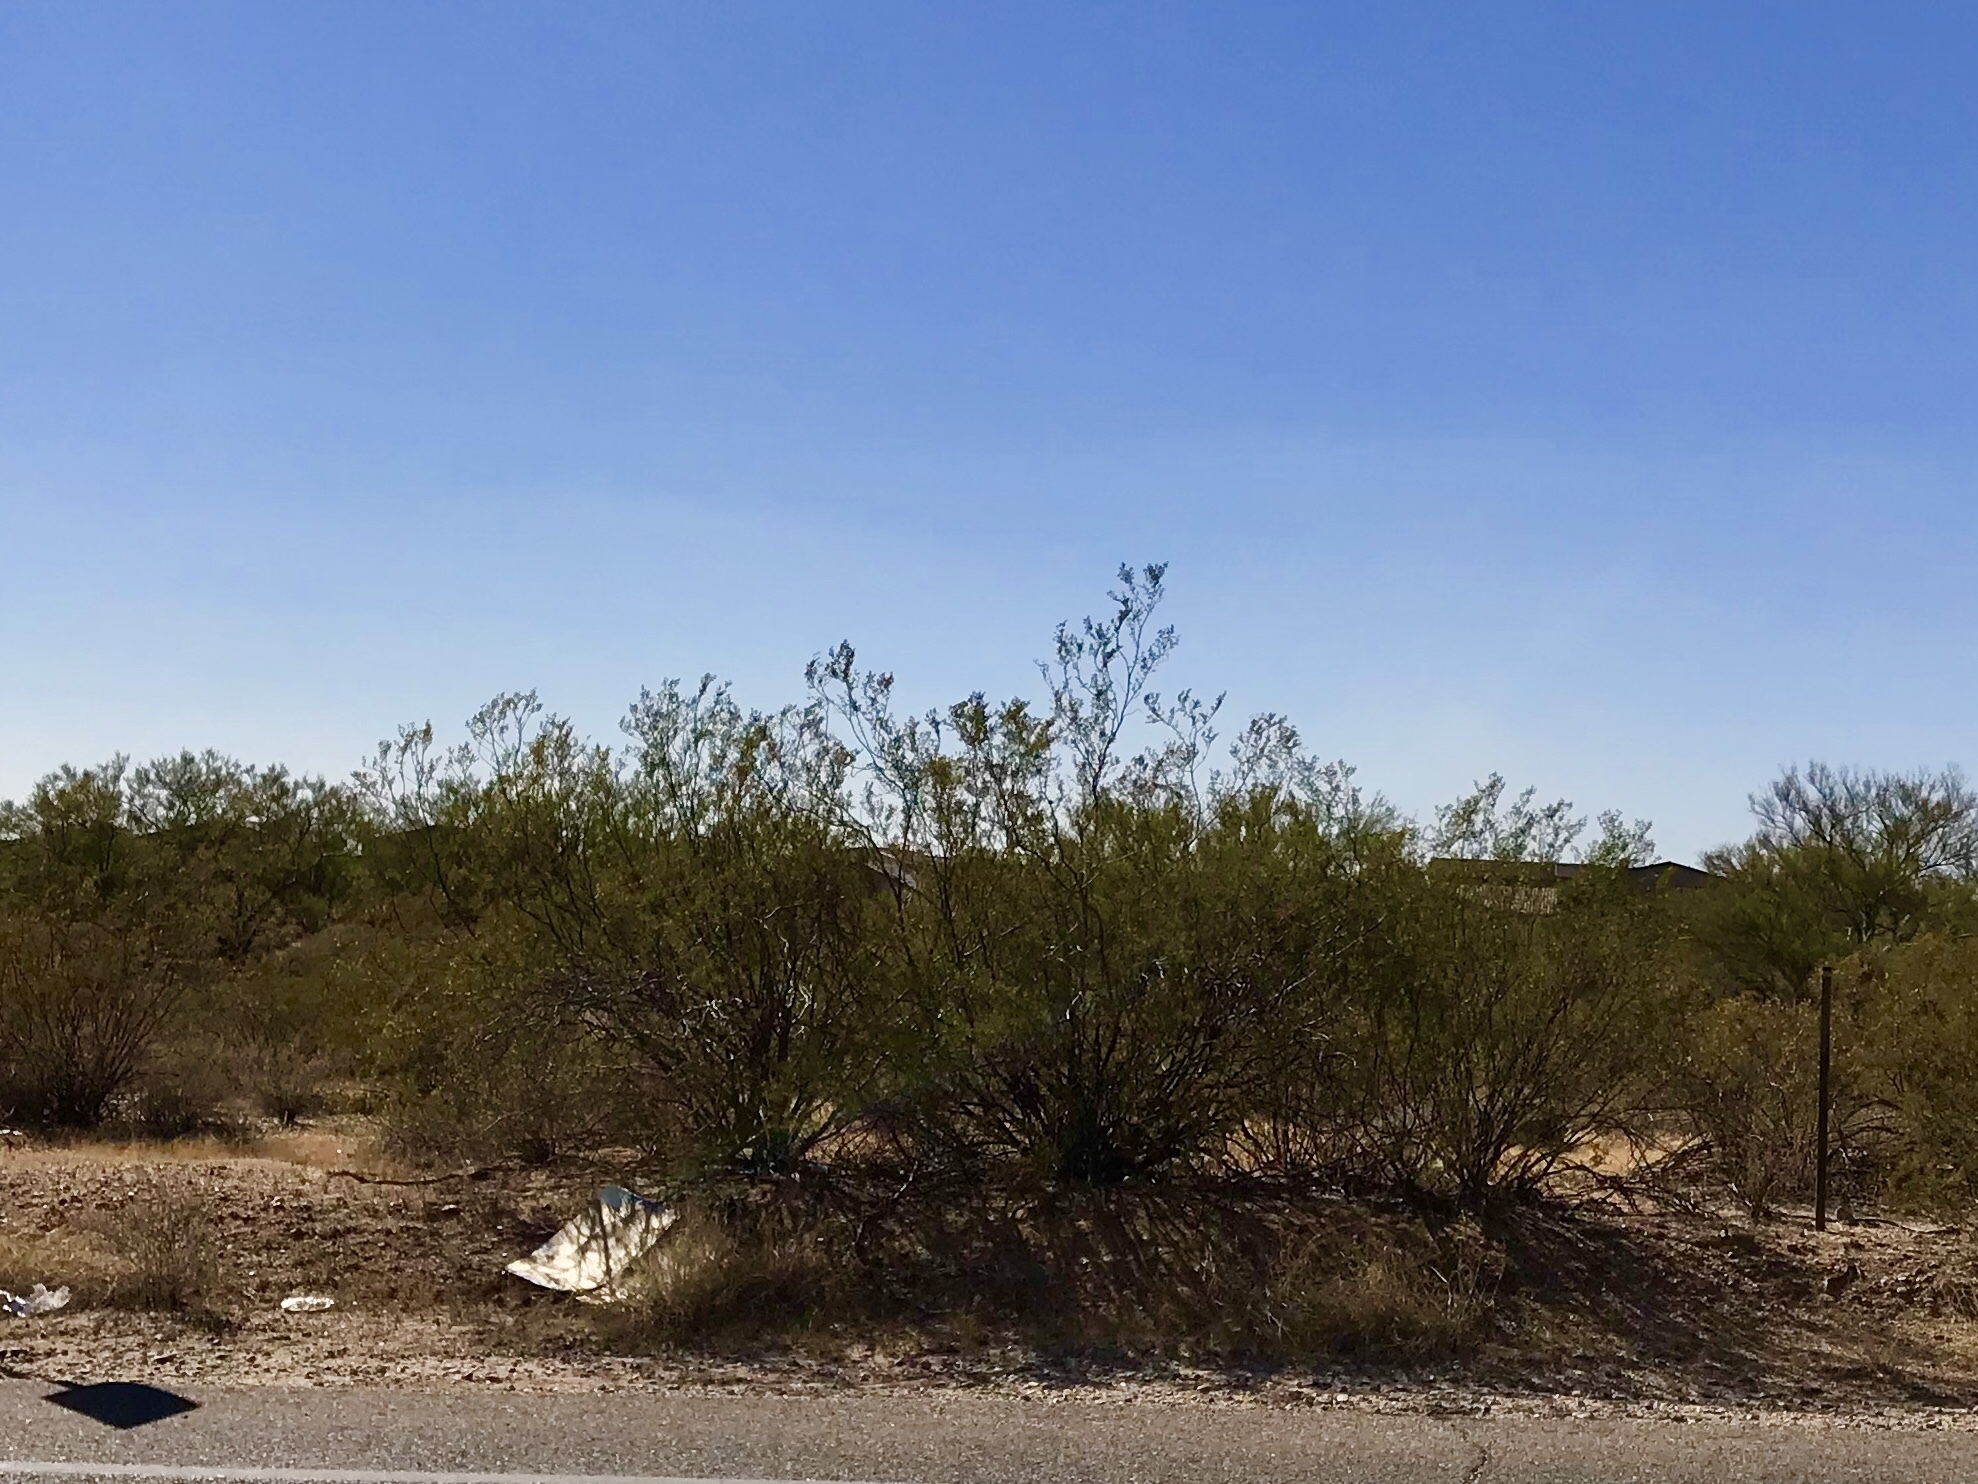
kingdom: Plantae
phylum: Tracheophyta
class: Magnoliopsida
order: Zygophyllales
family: Zygophyllaceae
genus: Larrea
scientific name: Larrea tridentata
